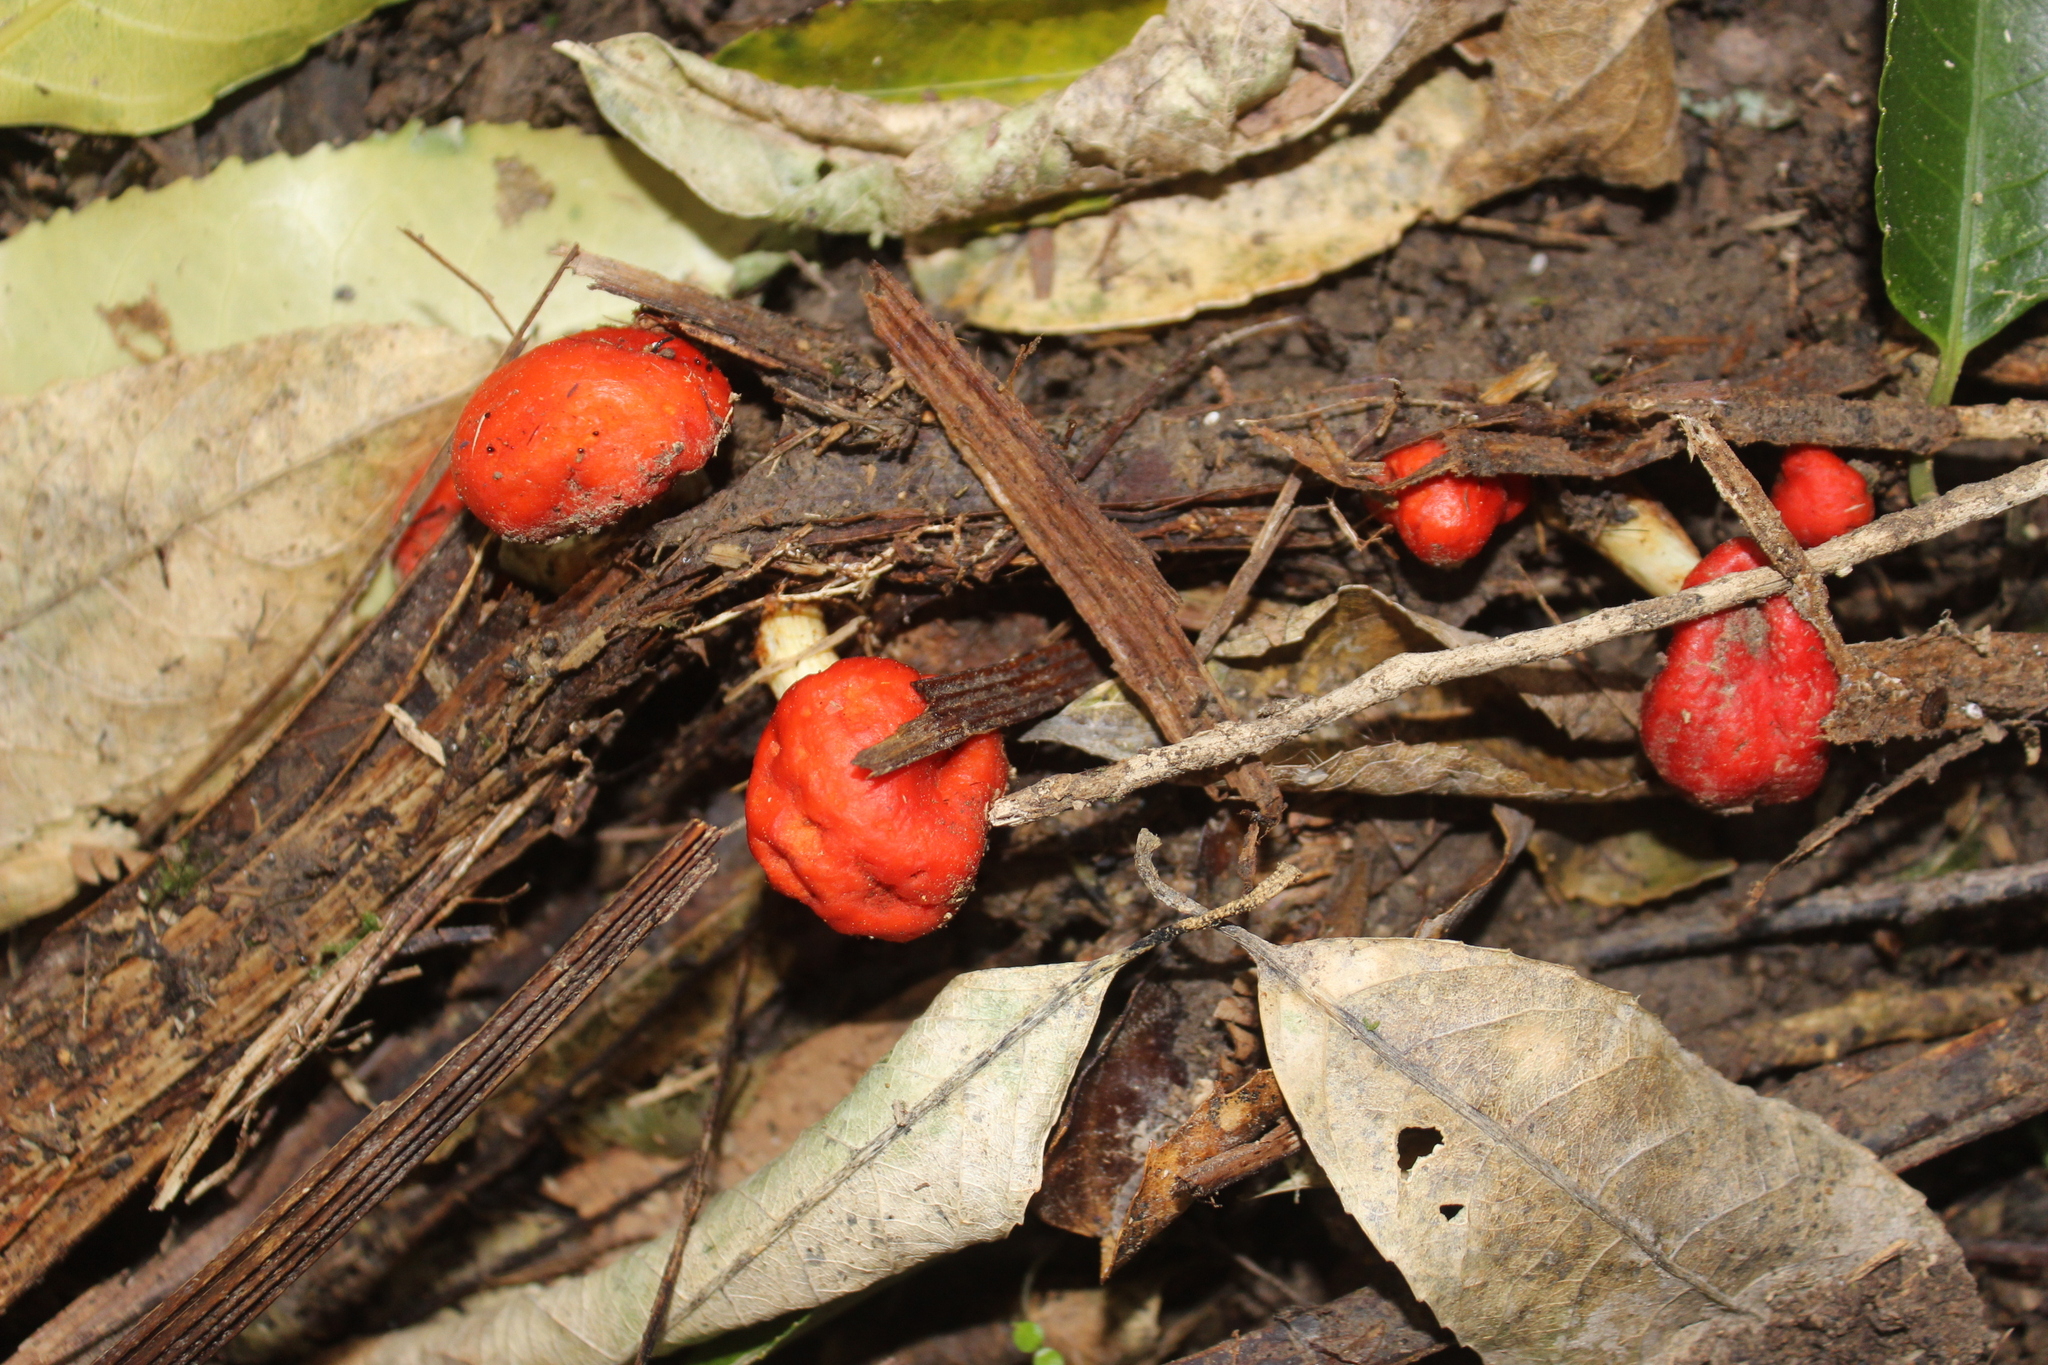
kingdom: Fungi
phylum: Basidiomycota
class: Agaricomycetes
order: Agaricales
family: Strophariaceae
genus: Leratiomyces
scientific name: Leratiomyces erythrocephalus
